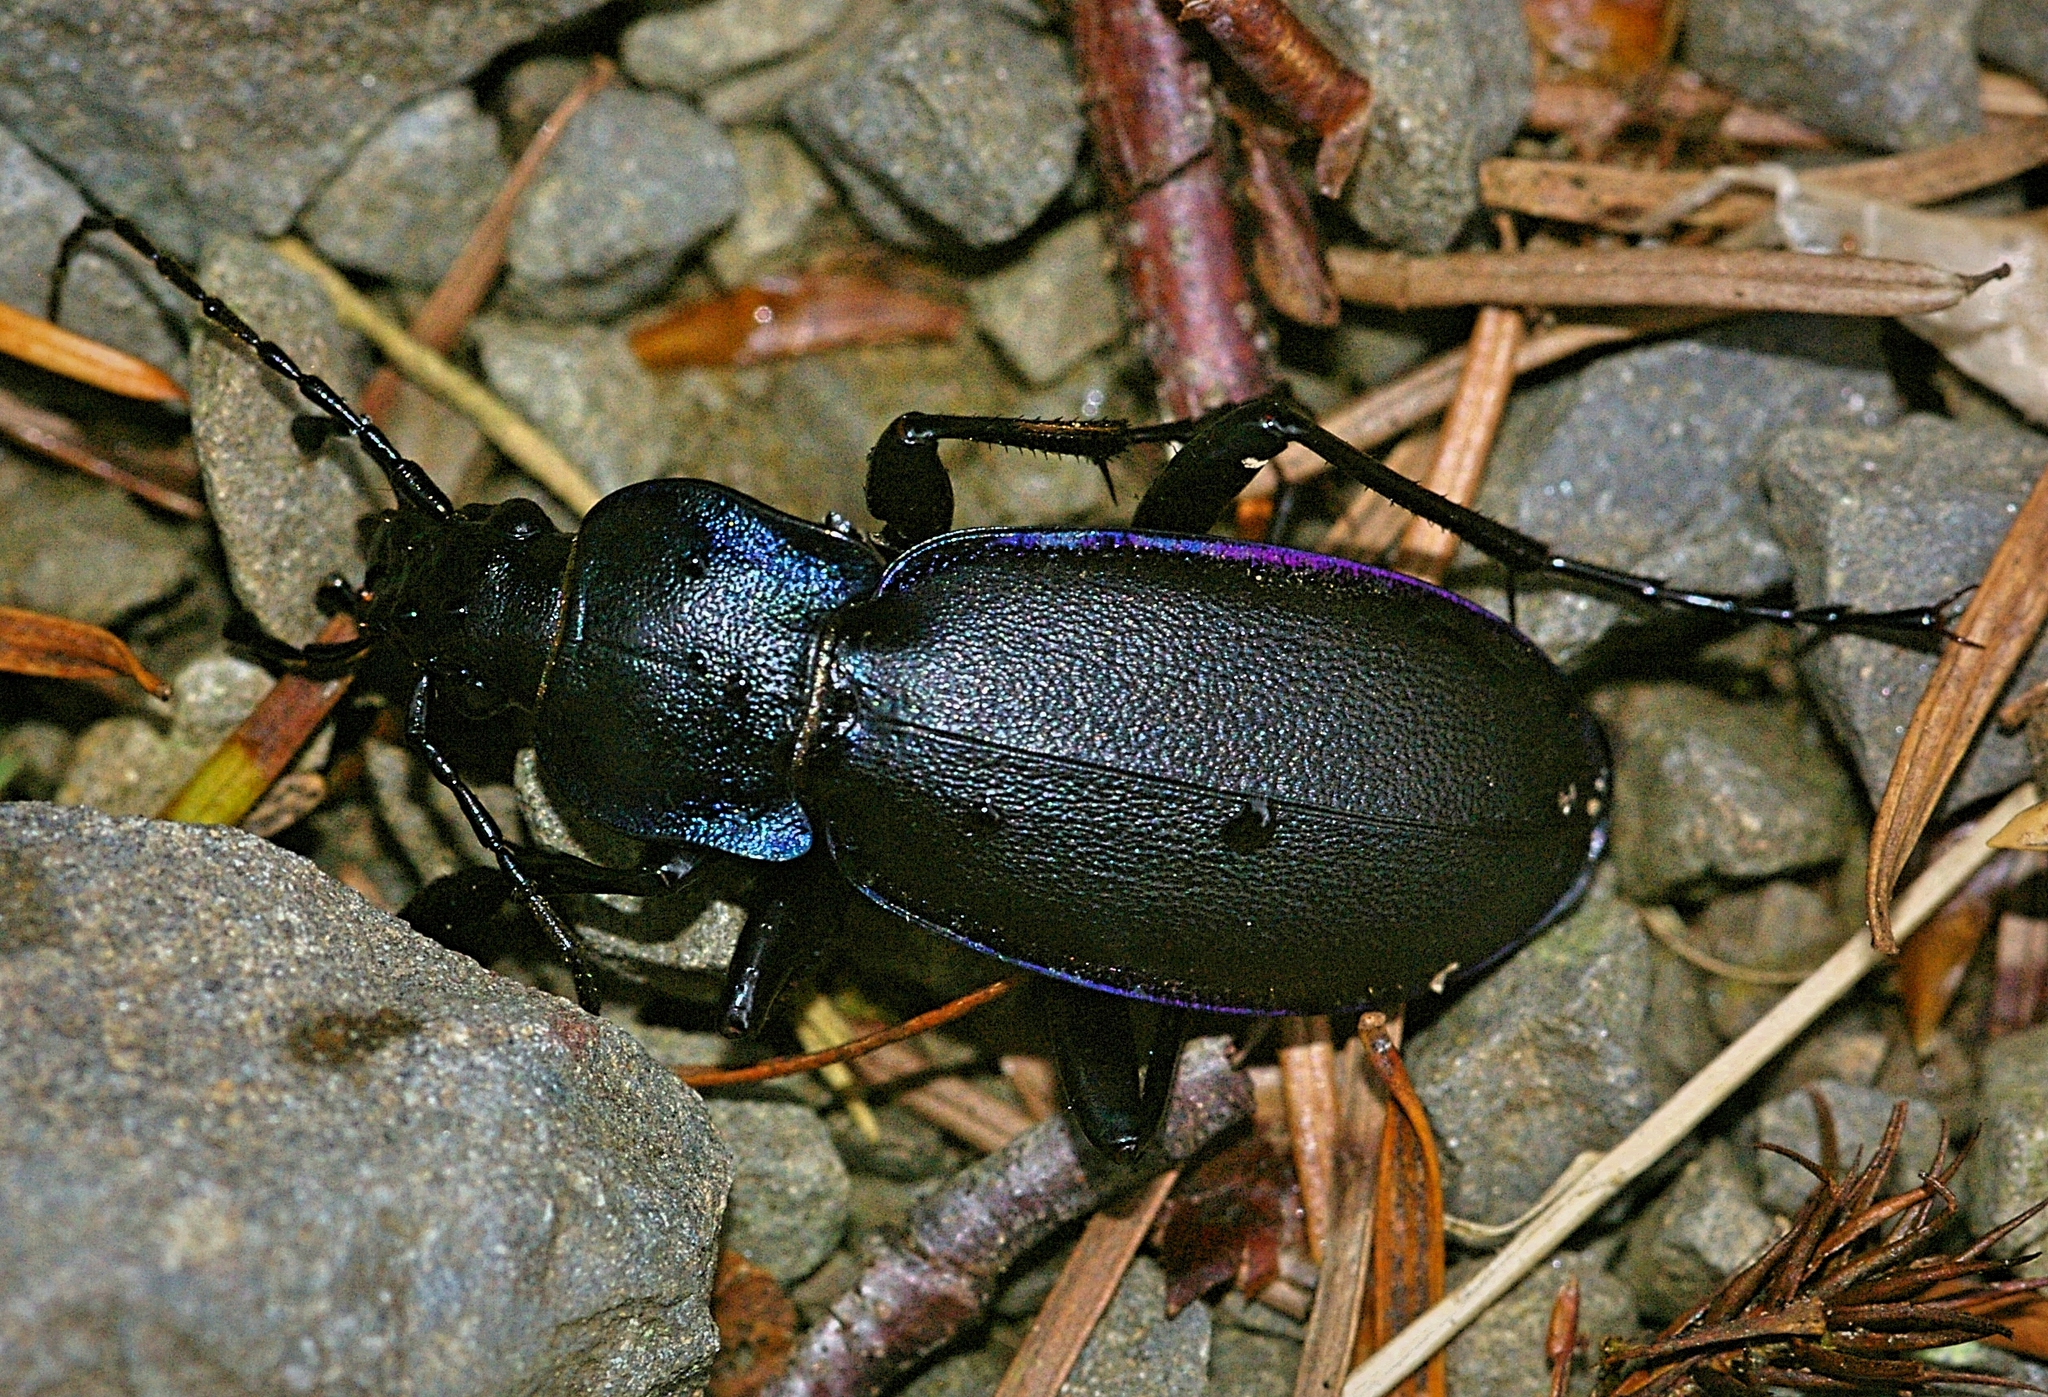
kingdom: Animalia
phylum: Arthropoda
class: Insecta
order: Coleoptera
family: Carabidae
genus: Carabus
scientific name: Carabus violaceus
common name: Violet ground beetle
